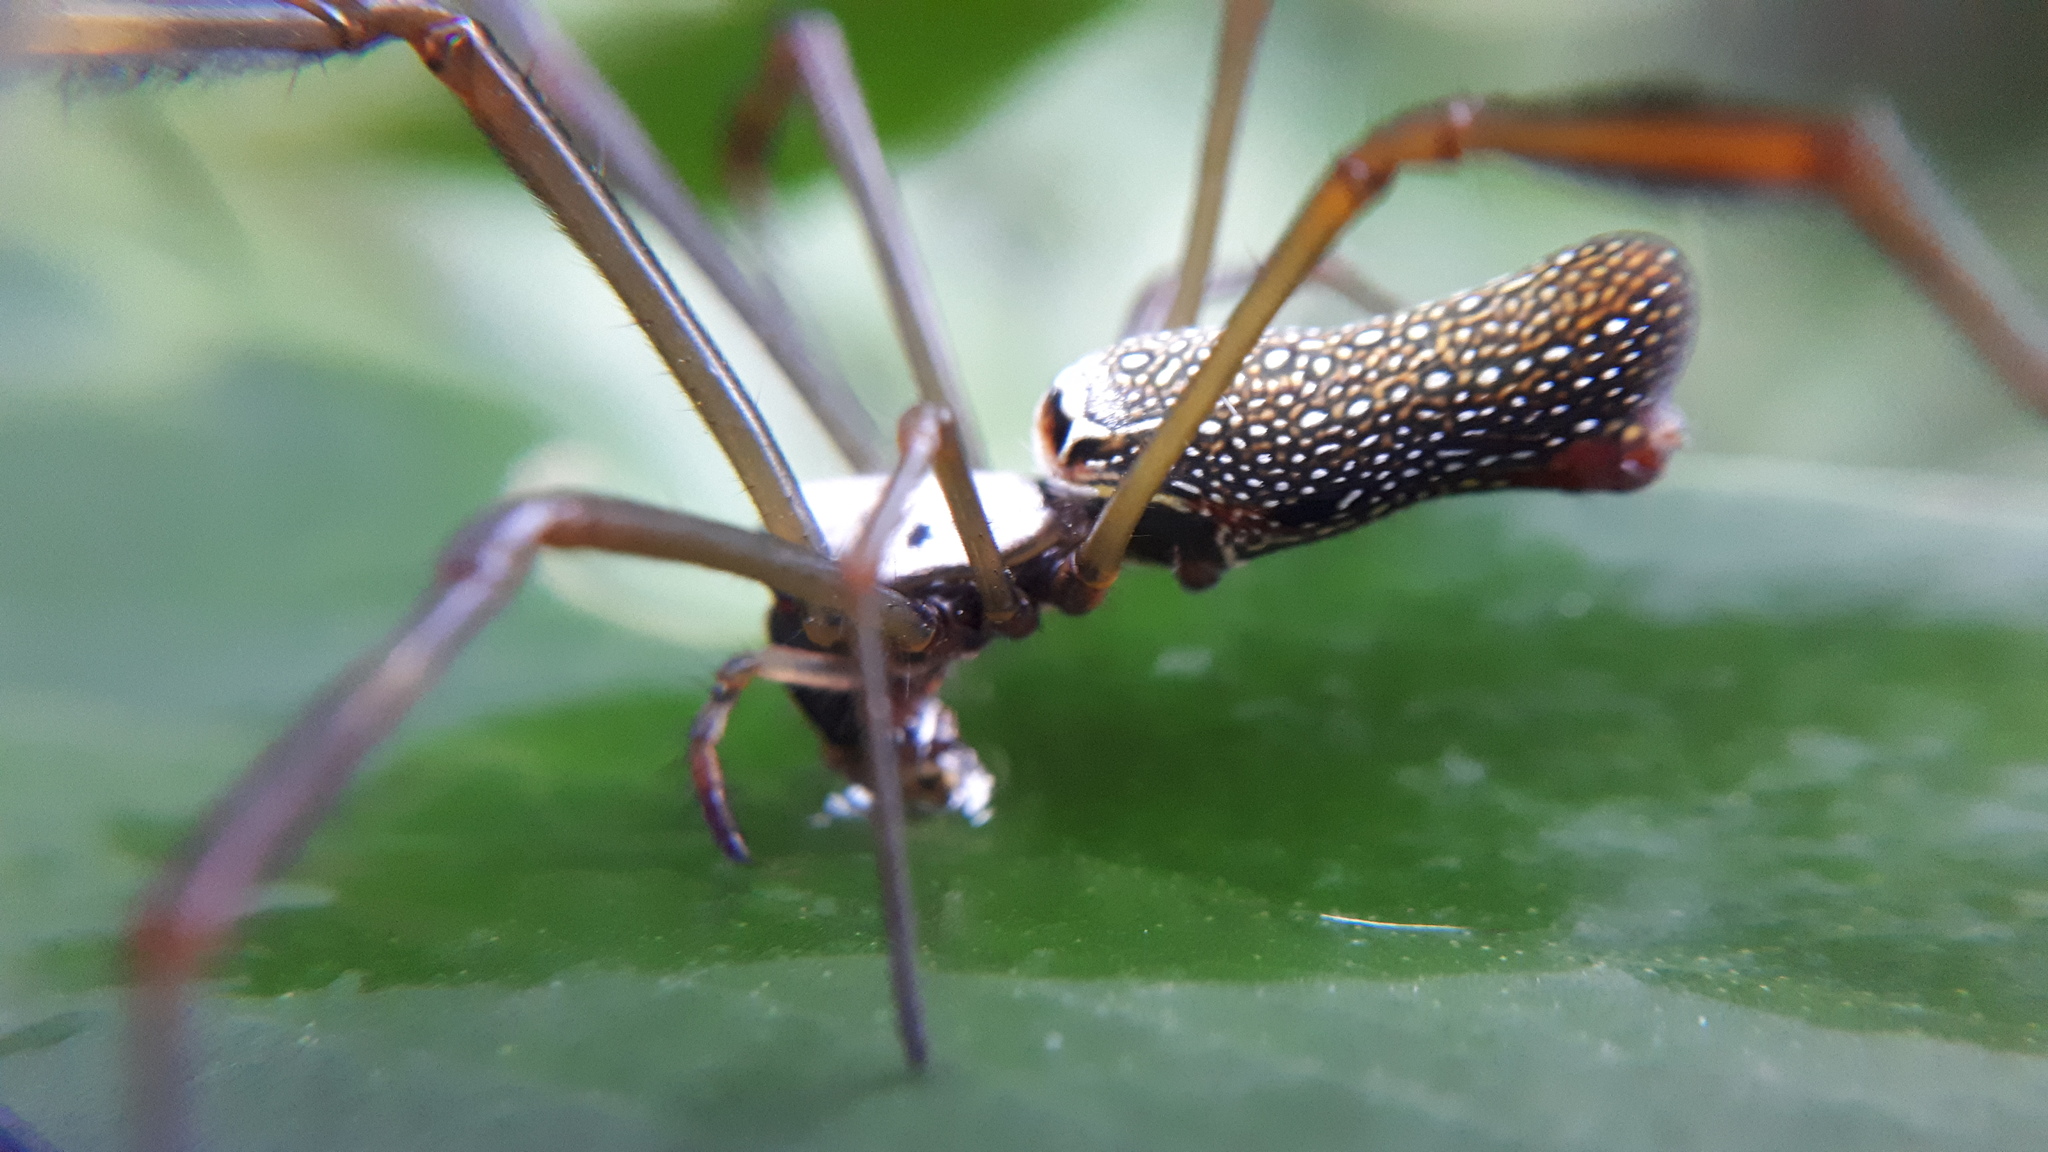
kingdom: Animalia
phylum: Arthropoda
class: Arachnida
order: Araneae
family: Araneidae
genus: Trichonephila
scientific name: Trichonephila clavipes
